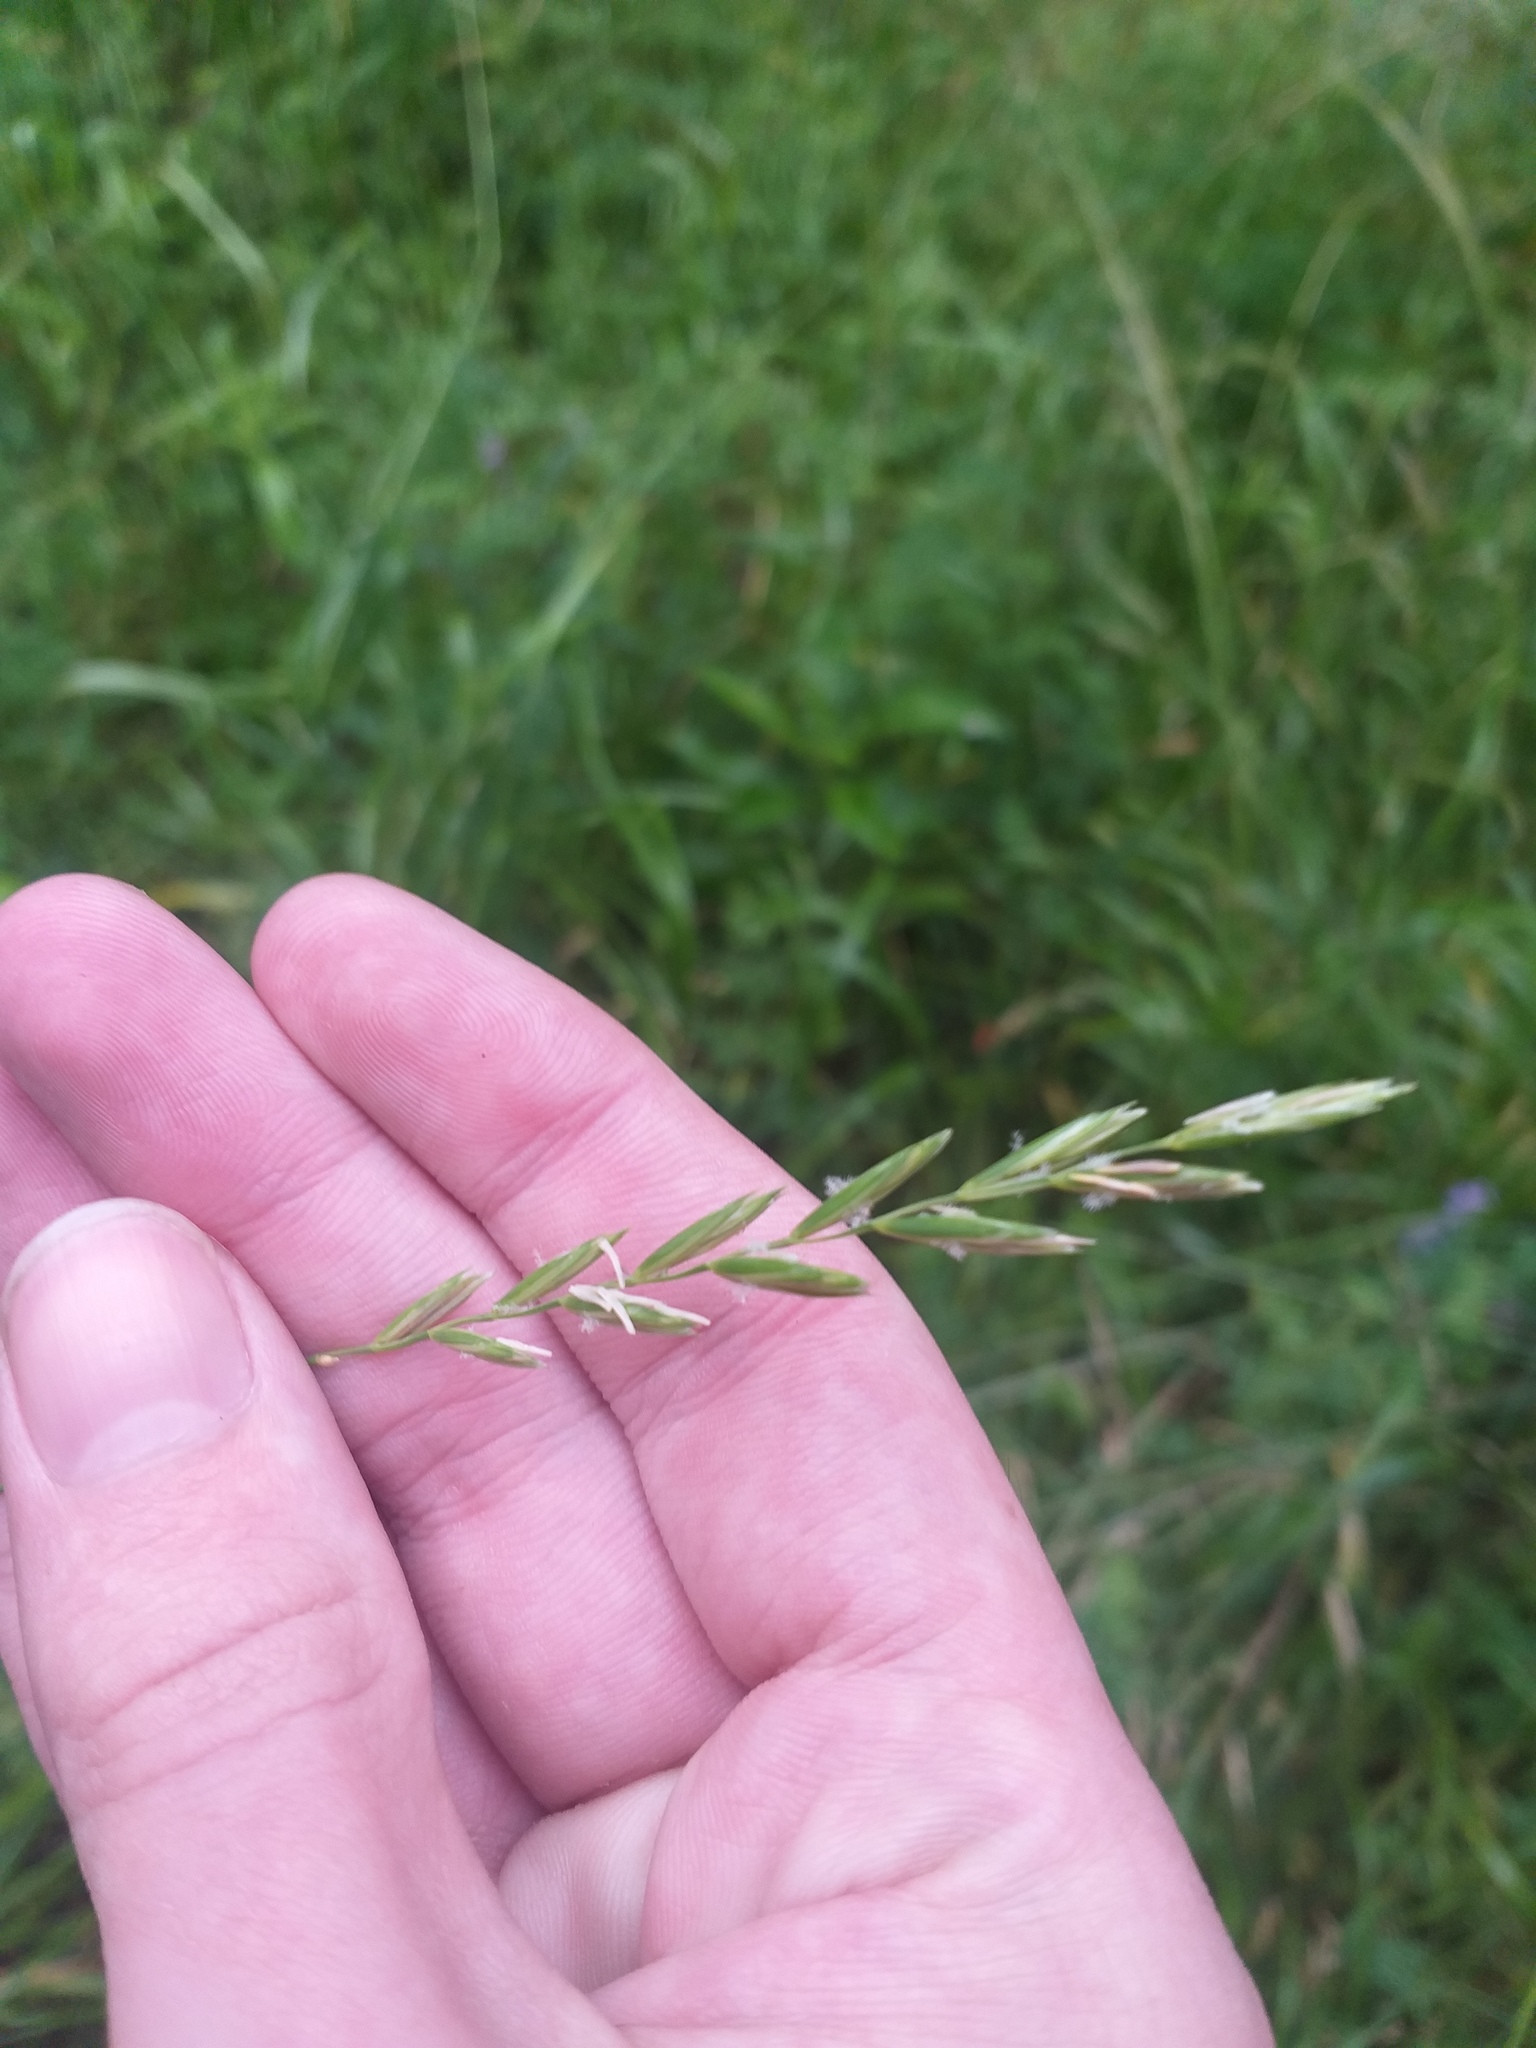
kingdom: Plantae
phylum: Tracheophyta
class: Liliopsida
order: Poales
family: Poaceae
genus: Elymus
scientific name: Elymus repens
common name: Quackgrass
